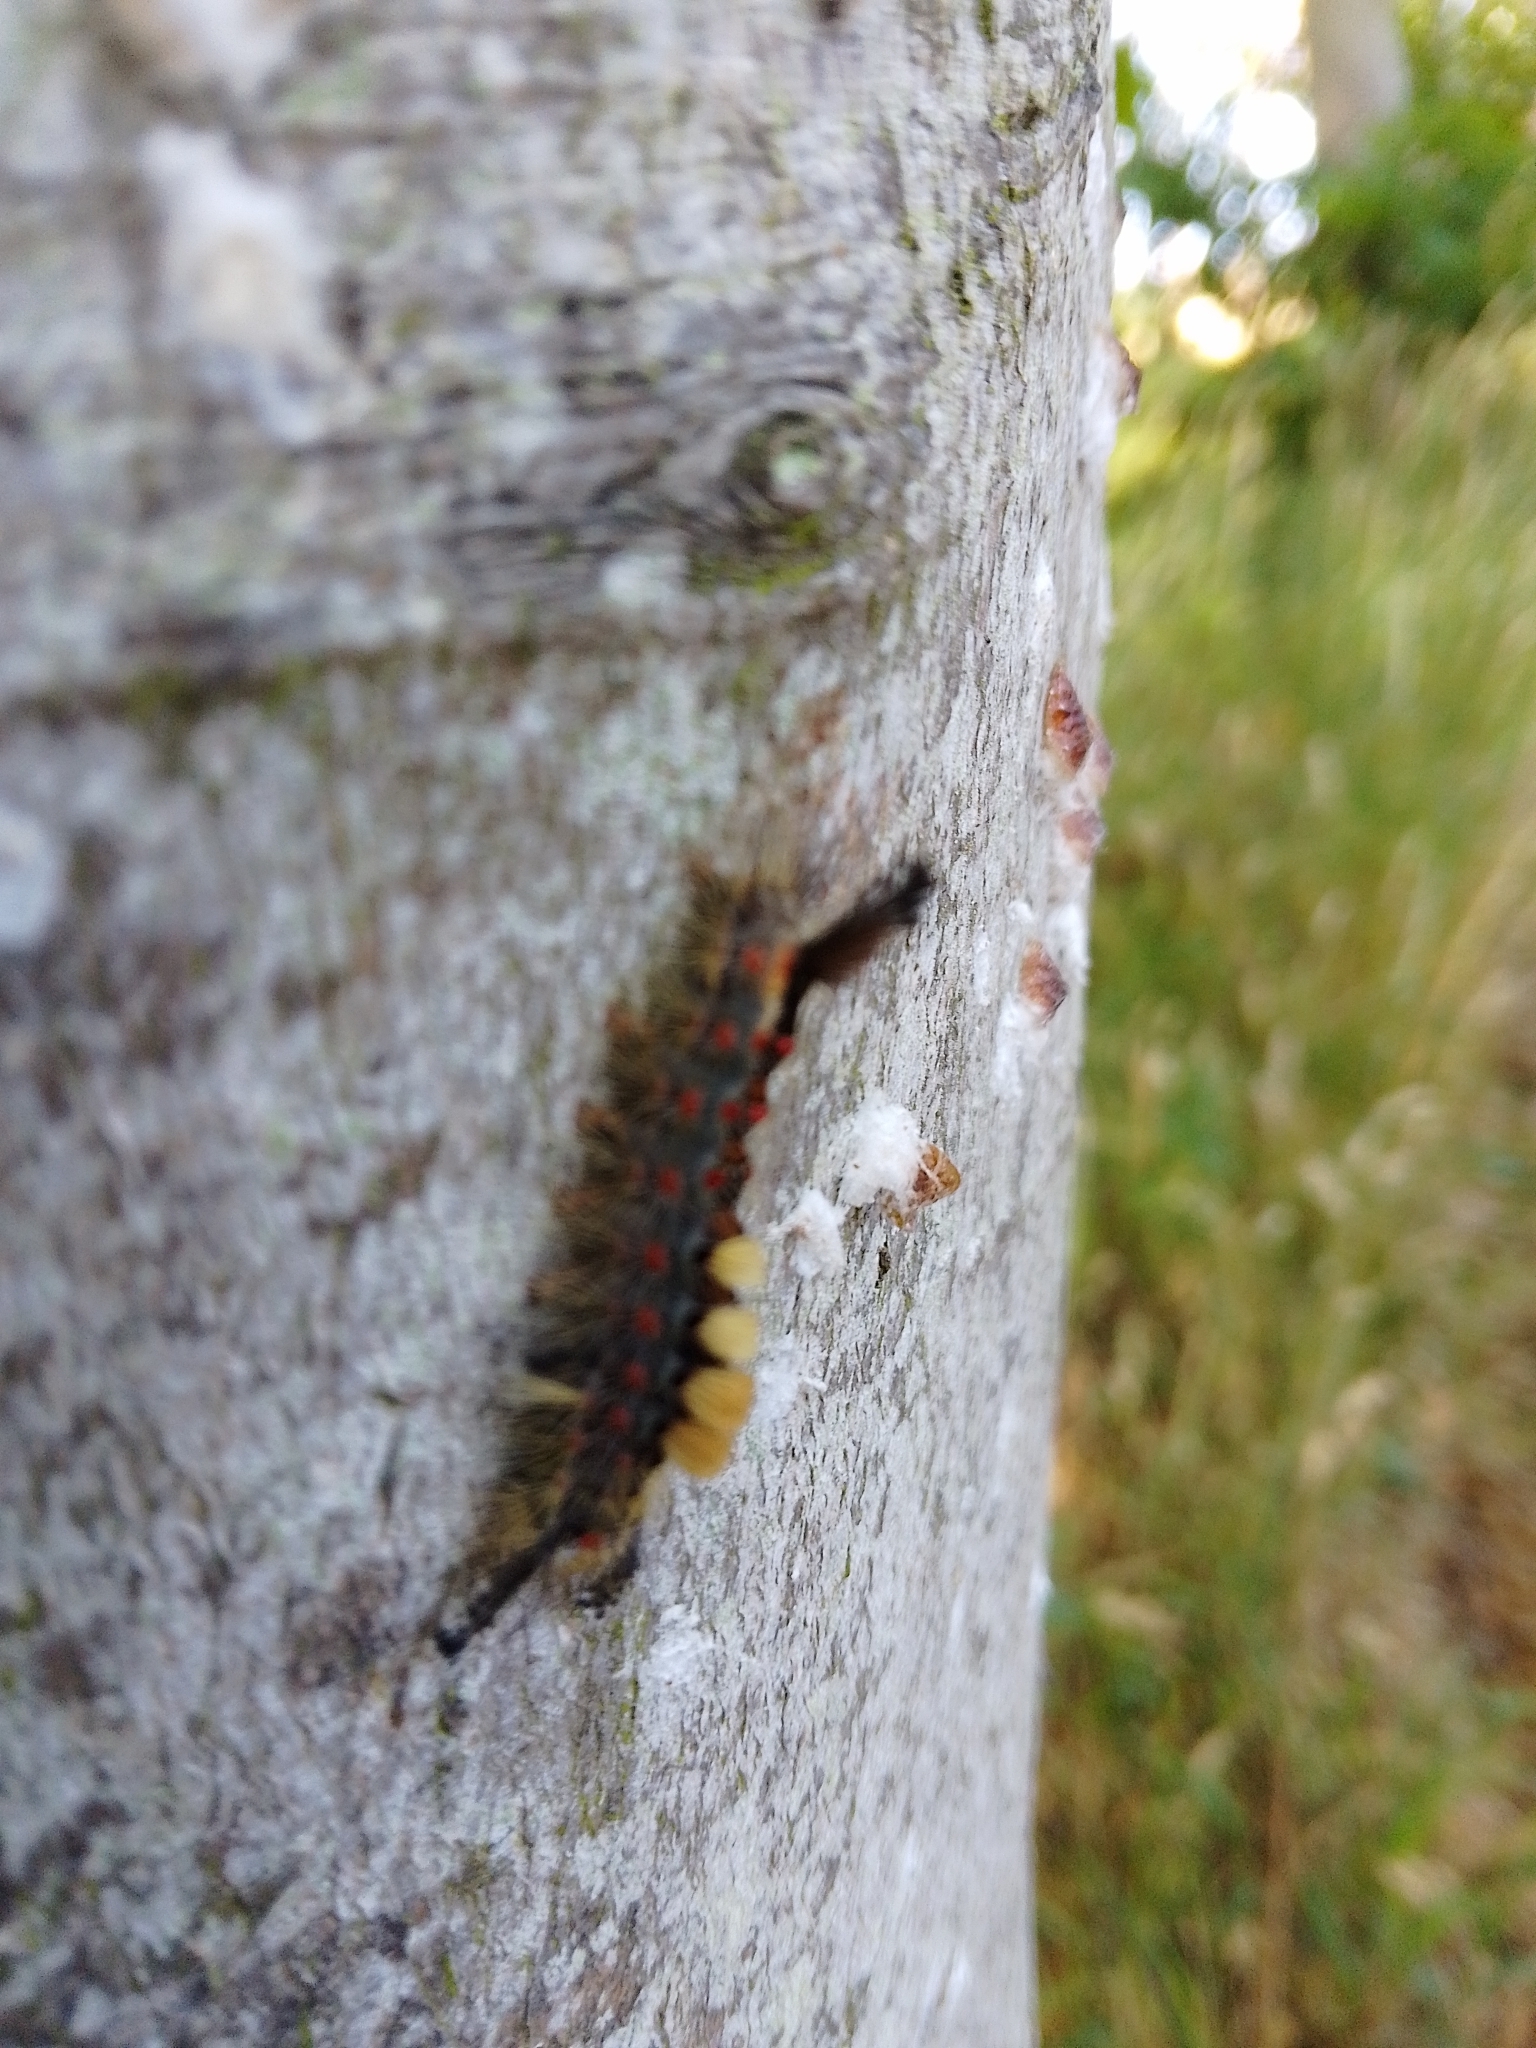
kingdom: Animalia
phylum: Arthropoda
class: Insecta
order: Lepidoptera
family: Erebidae
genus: Orgyia
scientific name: Orgyia antiqua
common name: Vapourer
